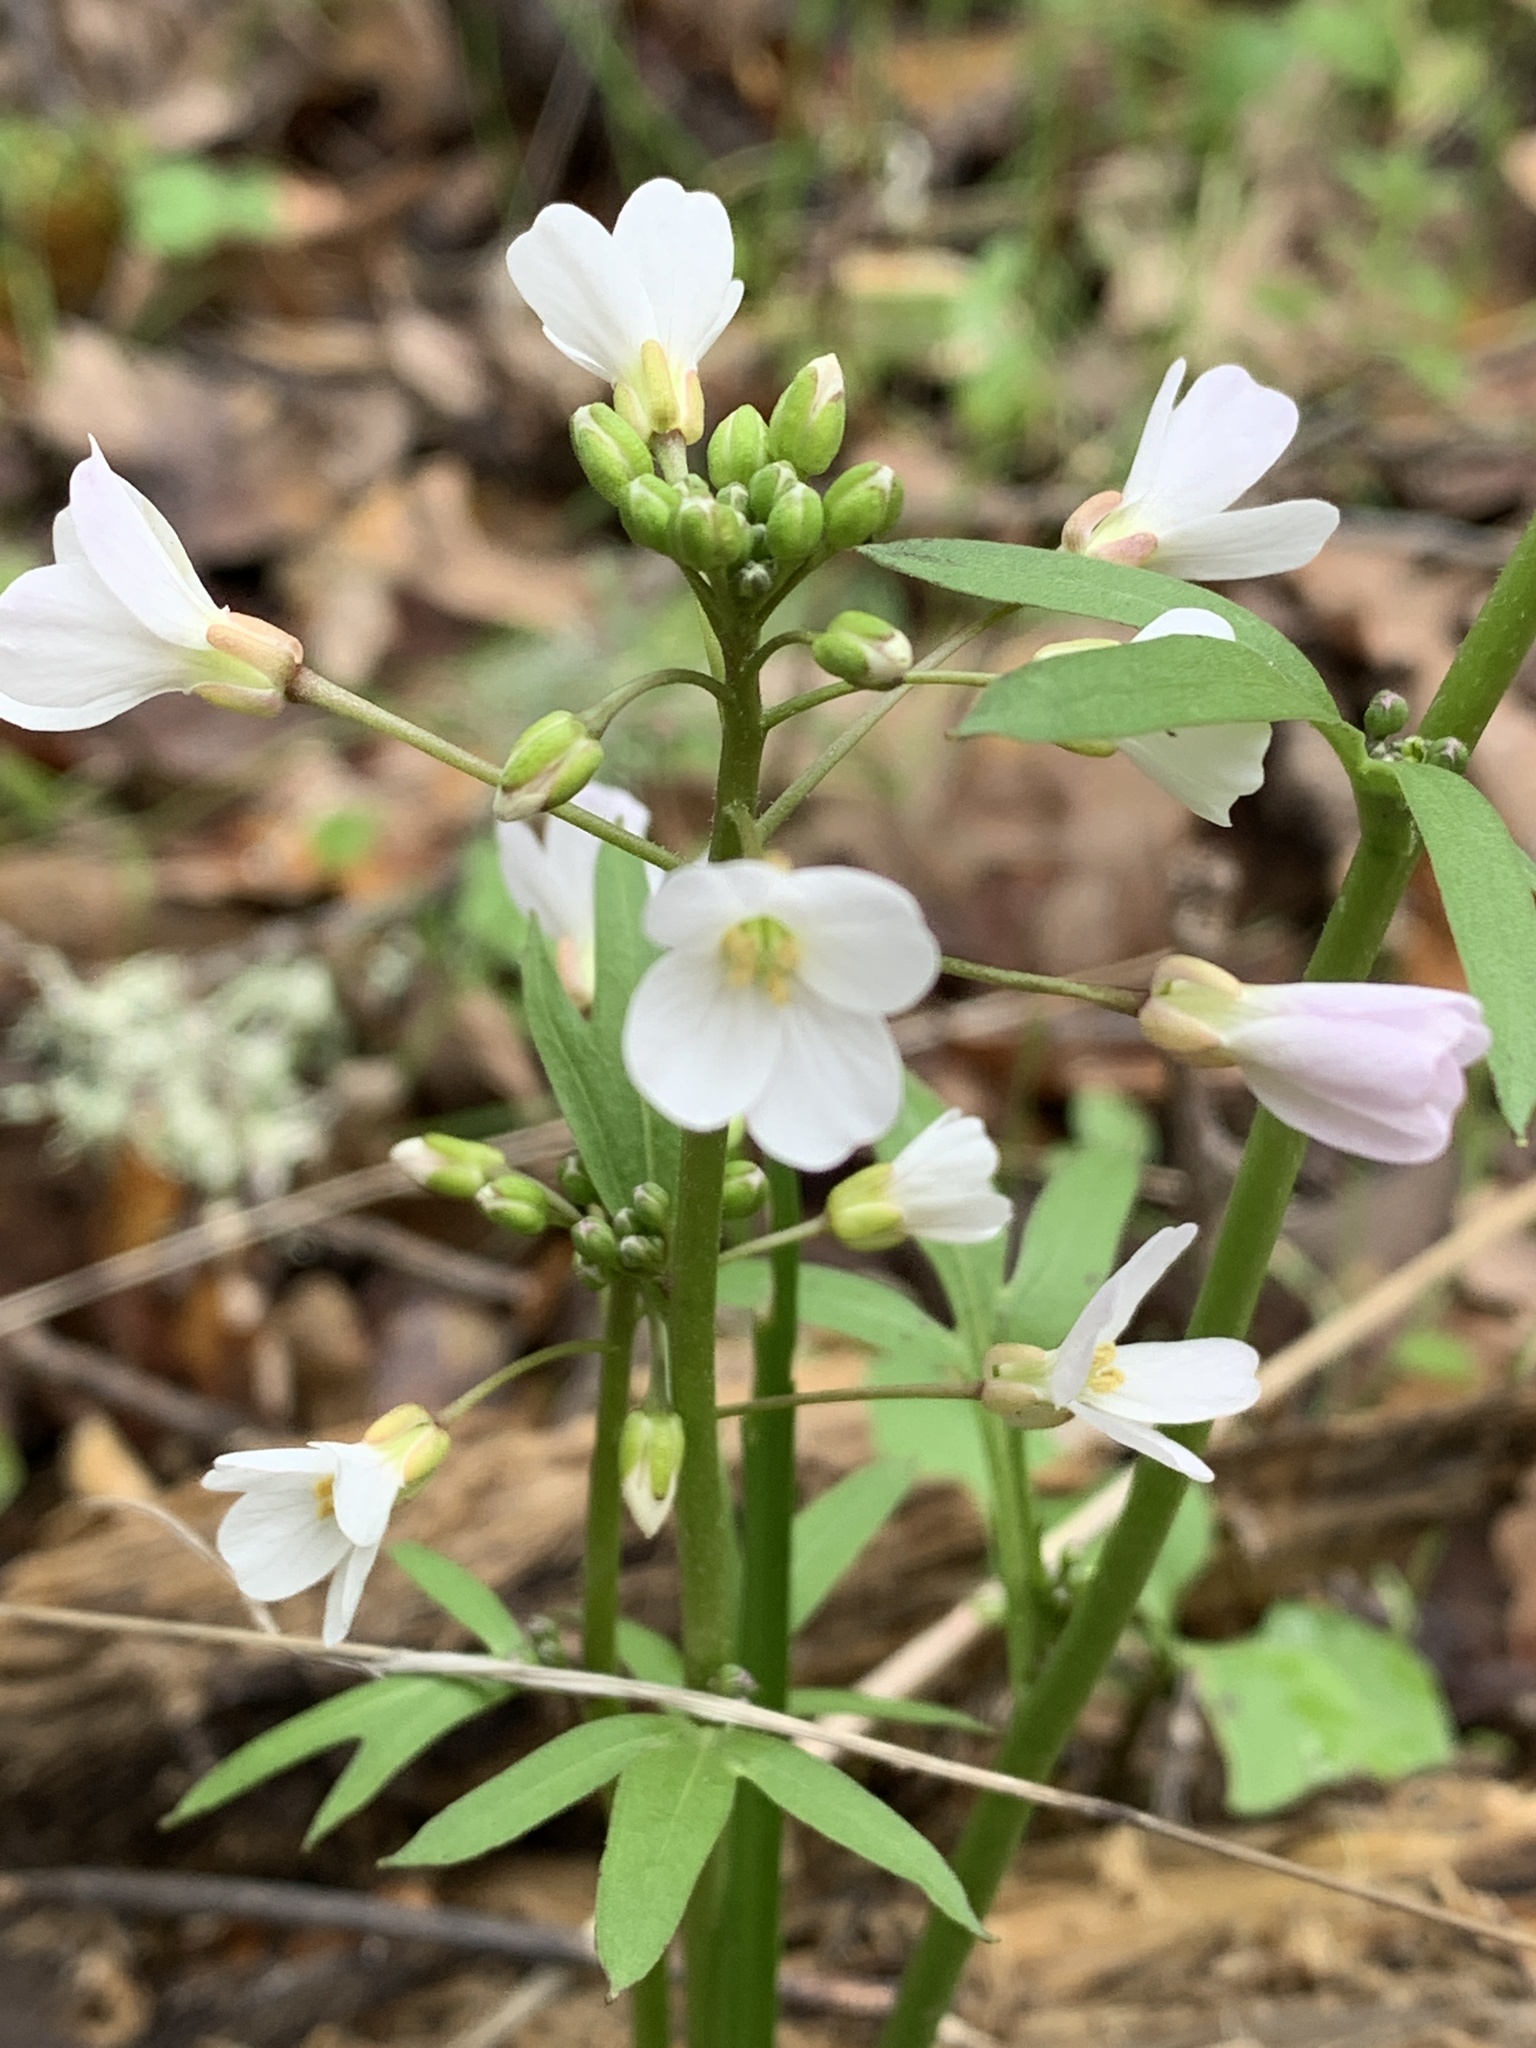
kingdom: Plantae
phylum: Tracheophyta
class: Magnoliopsida
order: Brassicales
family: Brassicaceae
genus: Cardamine
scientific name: Cardamine californica
